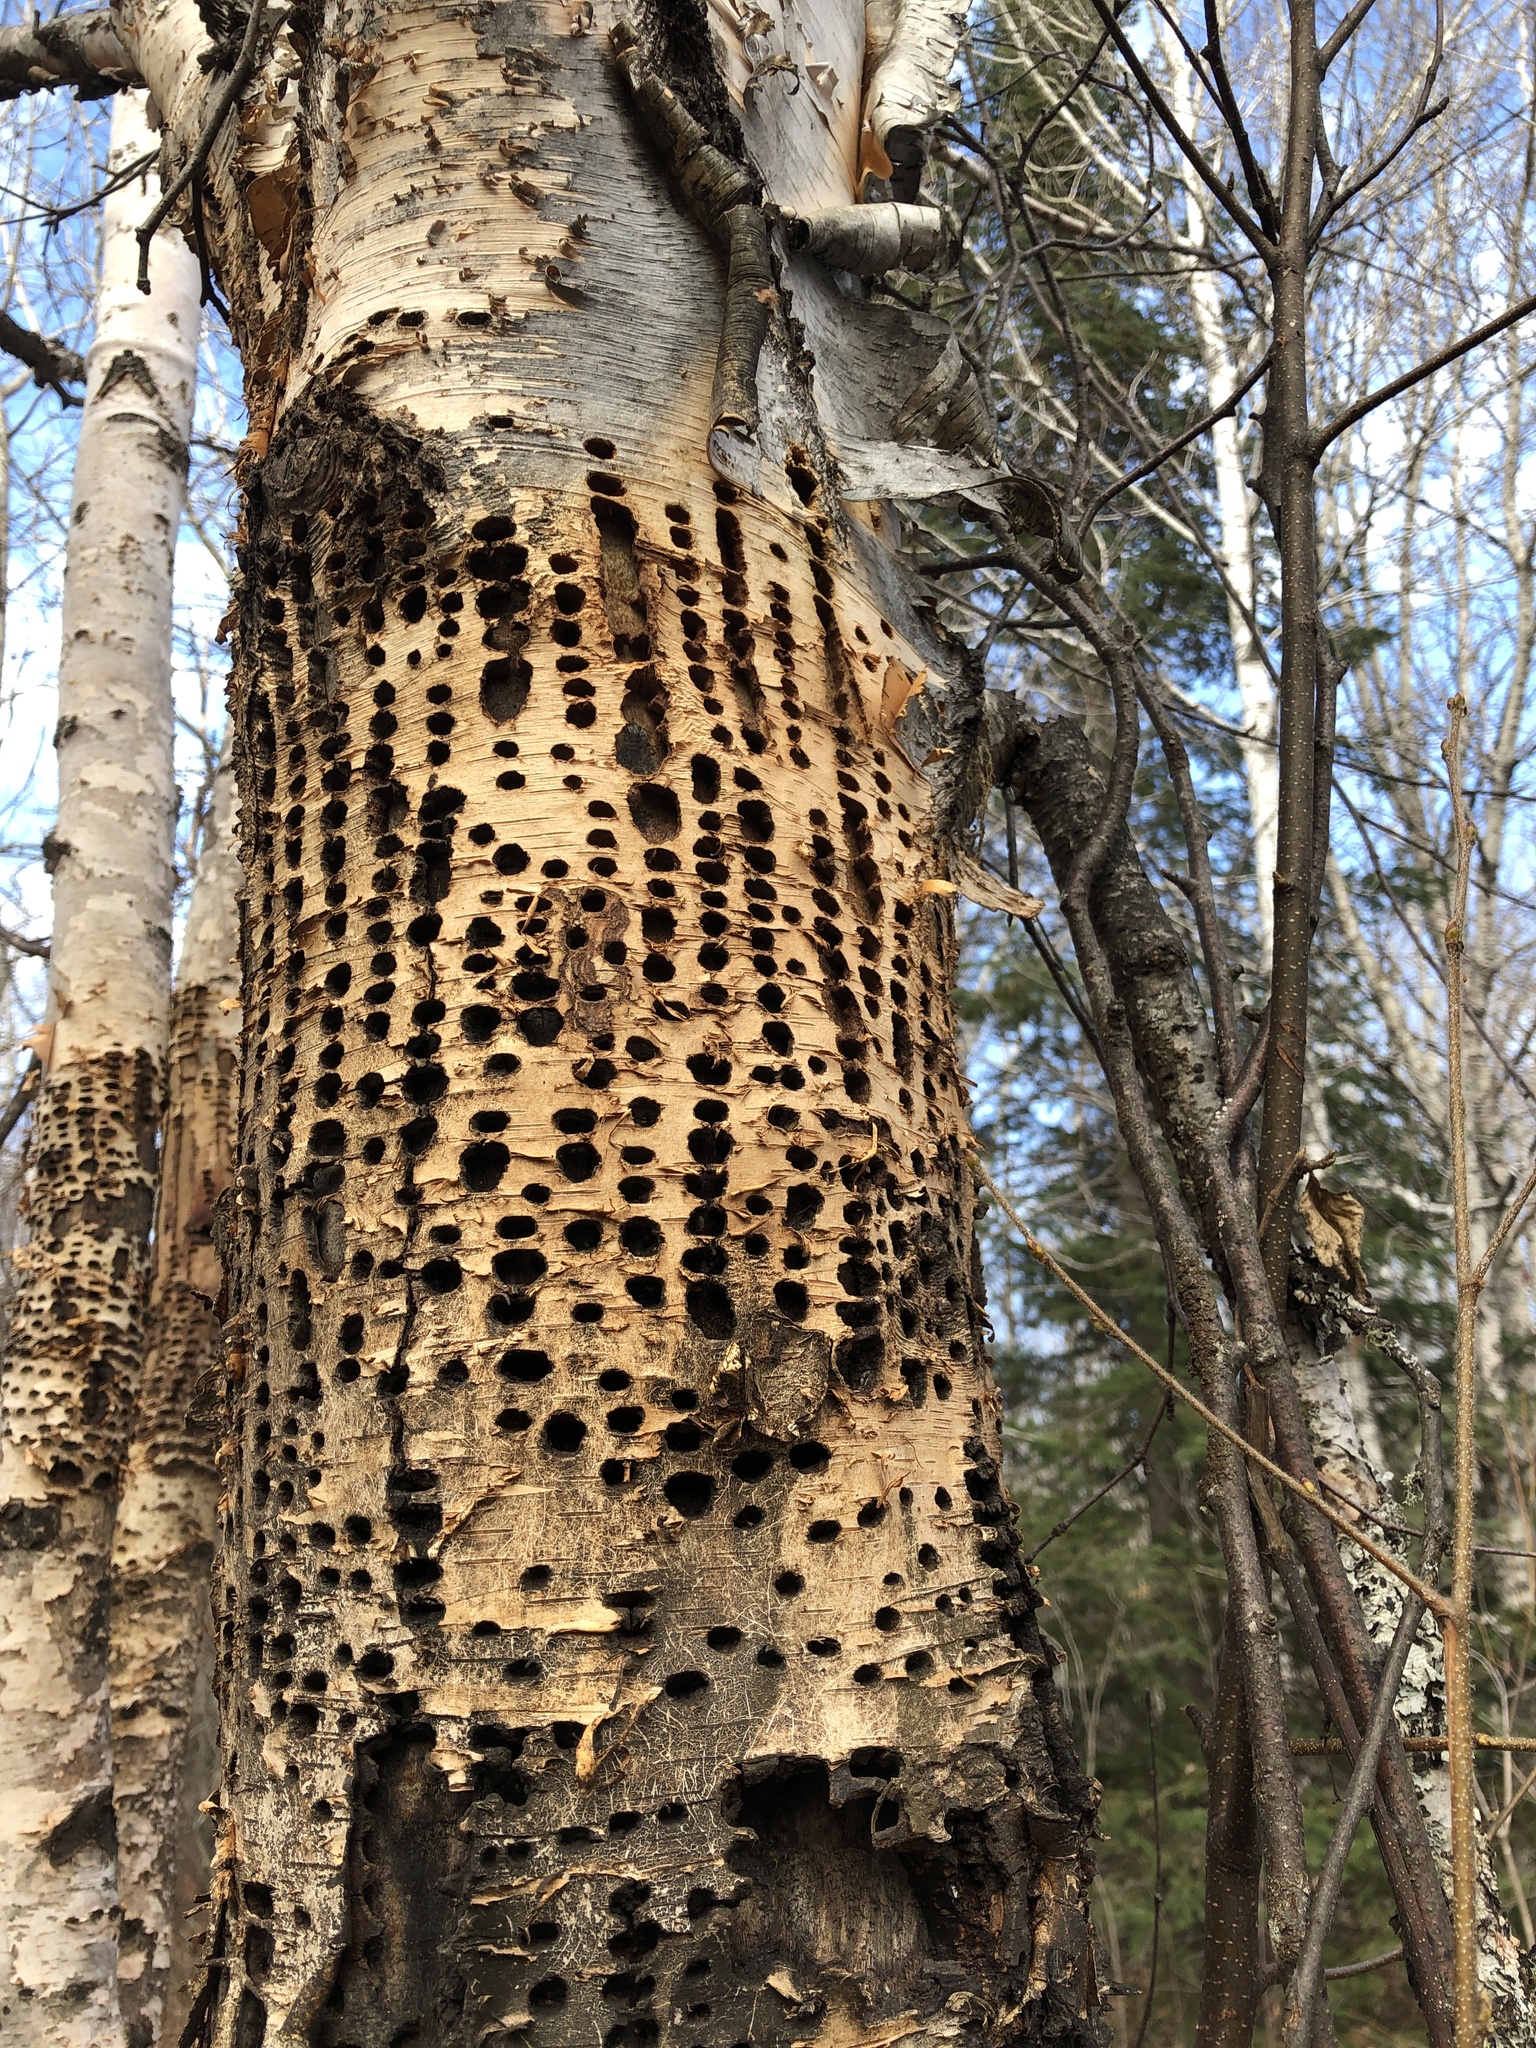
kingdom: Animalia
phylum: Chordata
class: Aves
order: Piciformes
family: Picidae
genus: Sphyrapicus
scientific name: Sphyrapicus varius
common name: Yellow-bellied sapsucker
